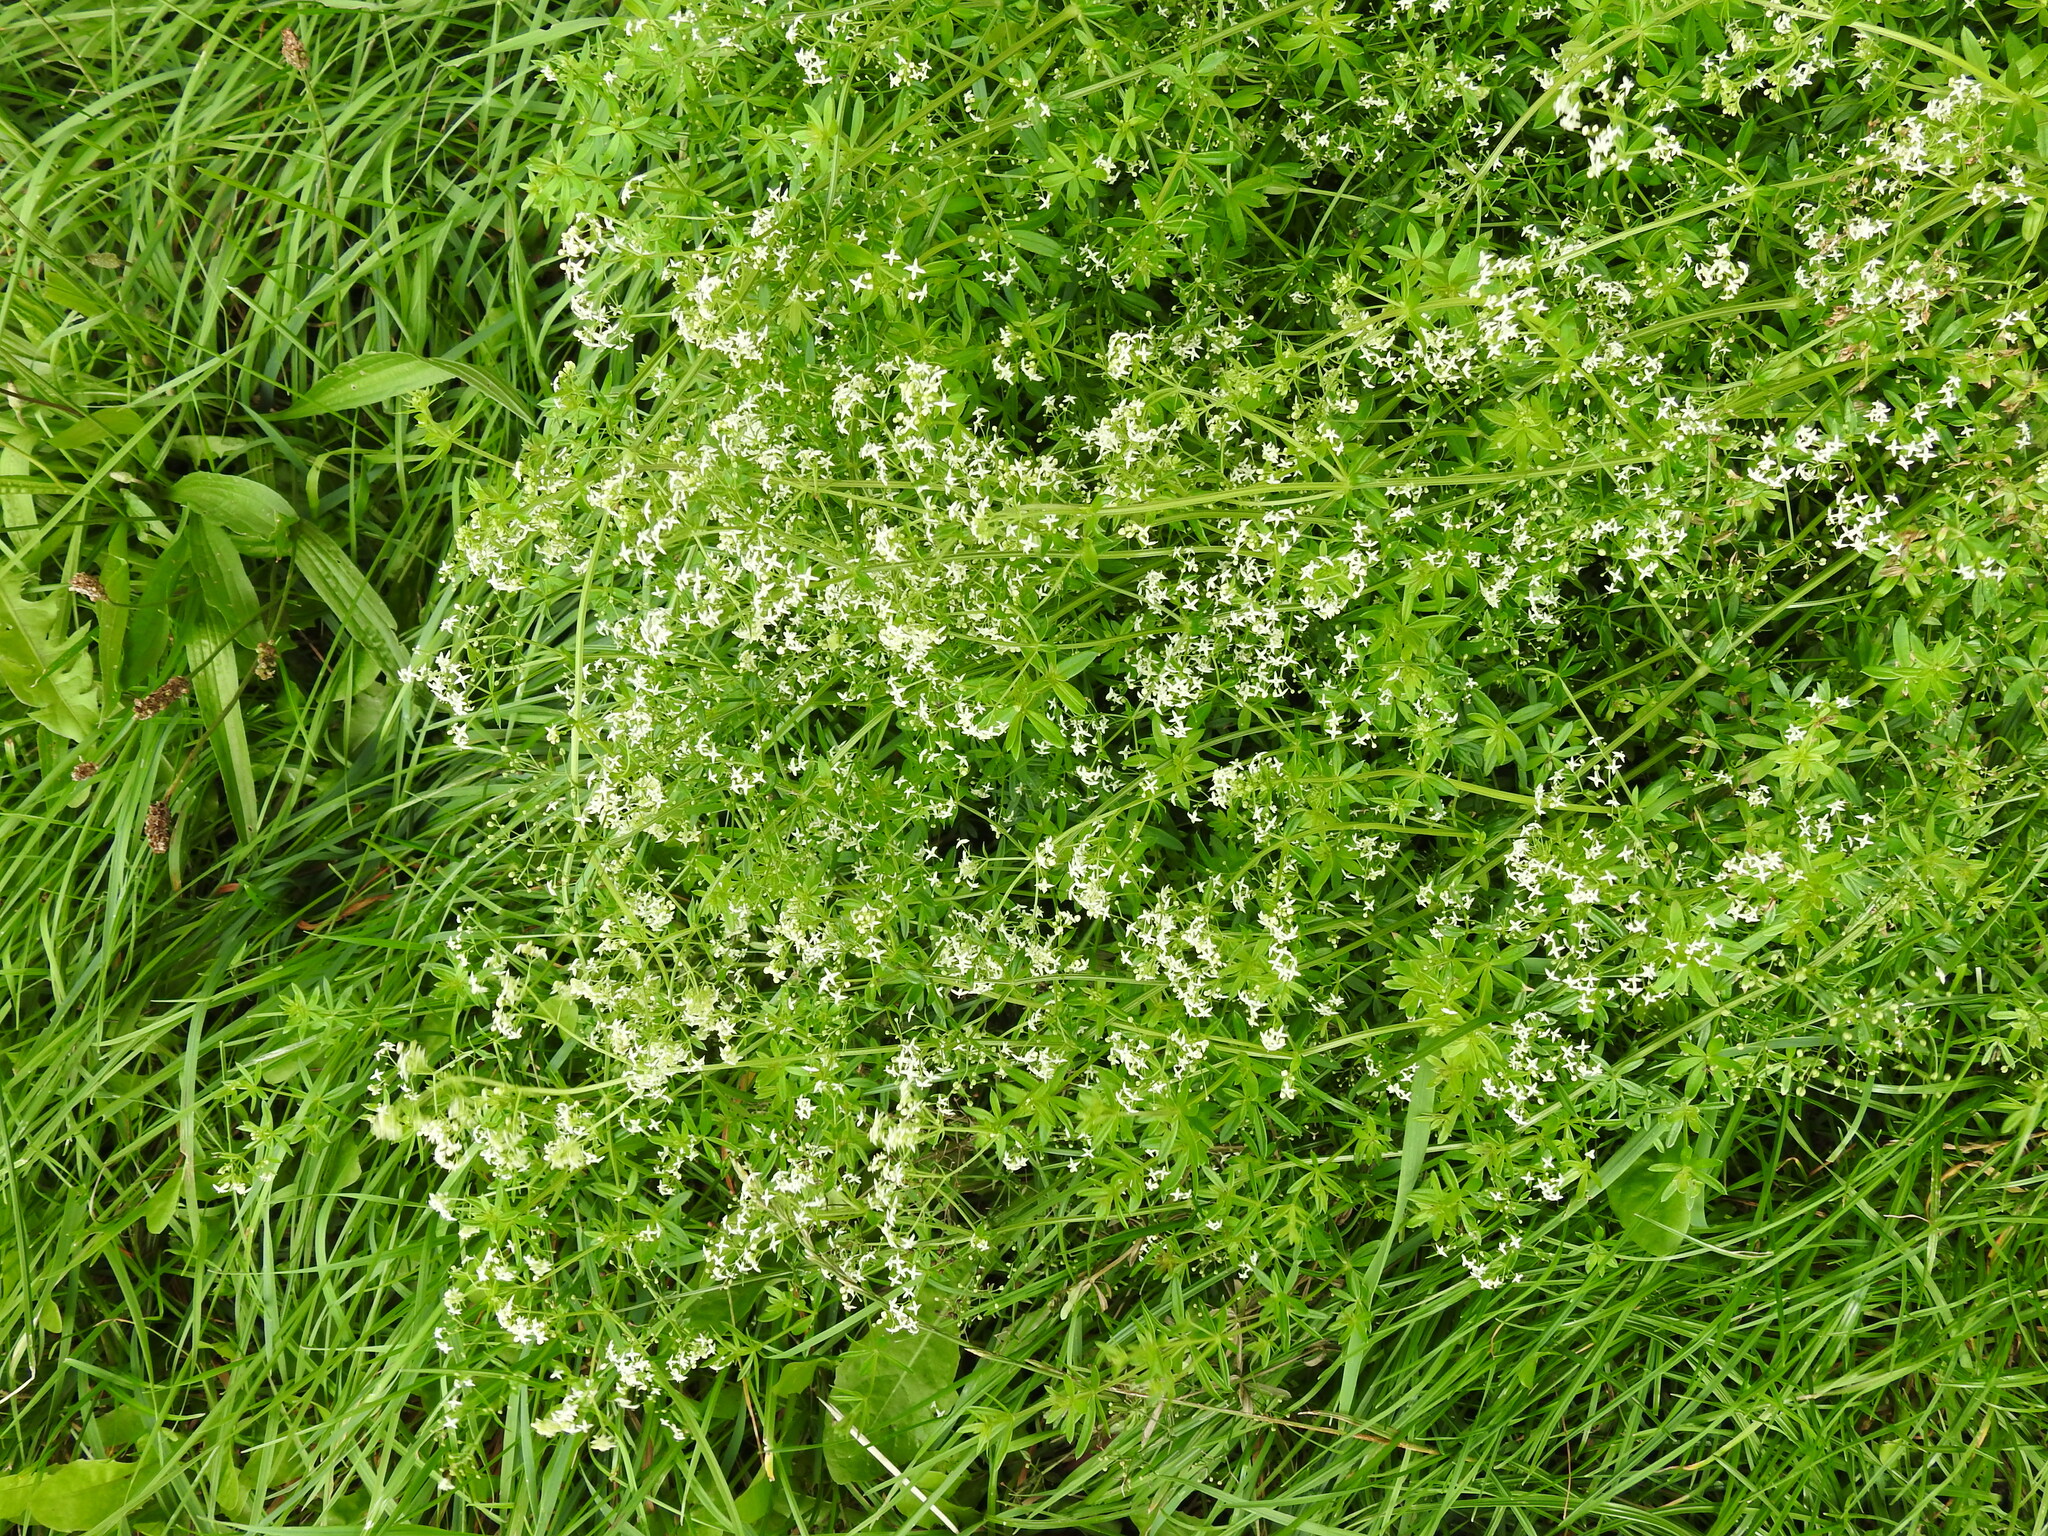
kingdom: Plantae
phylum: Tracheophyta
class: Magnoliopsida
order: Gentianales
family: Rubiaceae
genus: Galium
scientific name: Galium album
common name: White bedstraw
